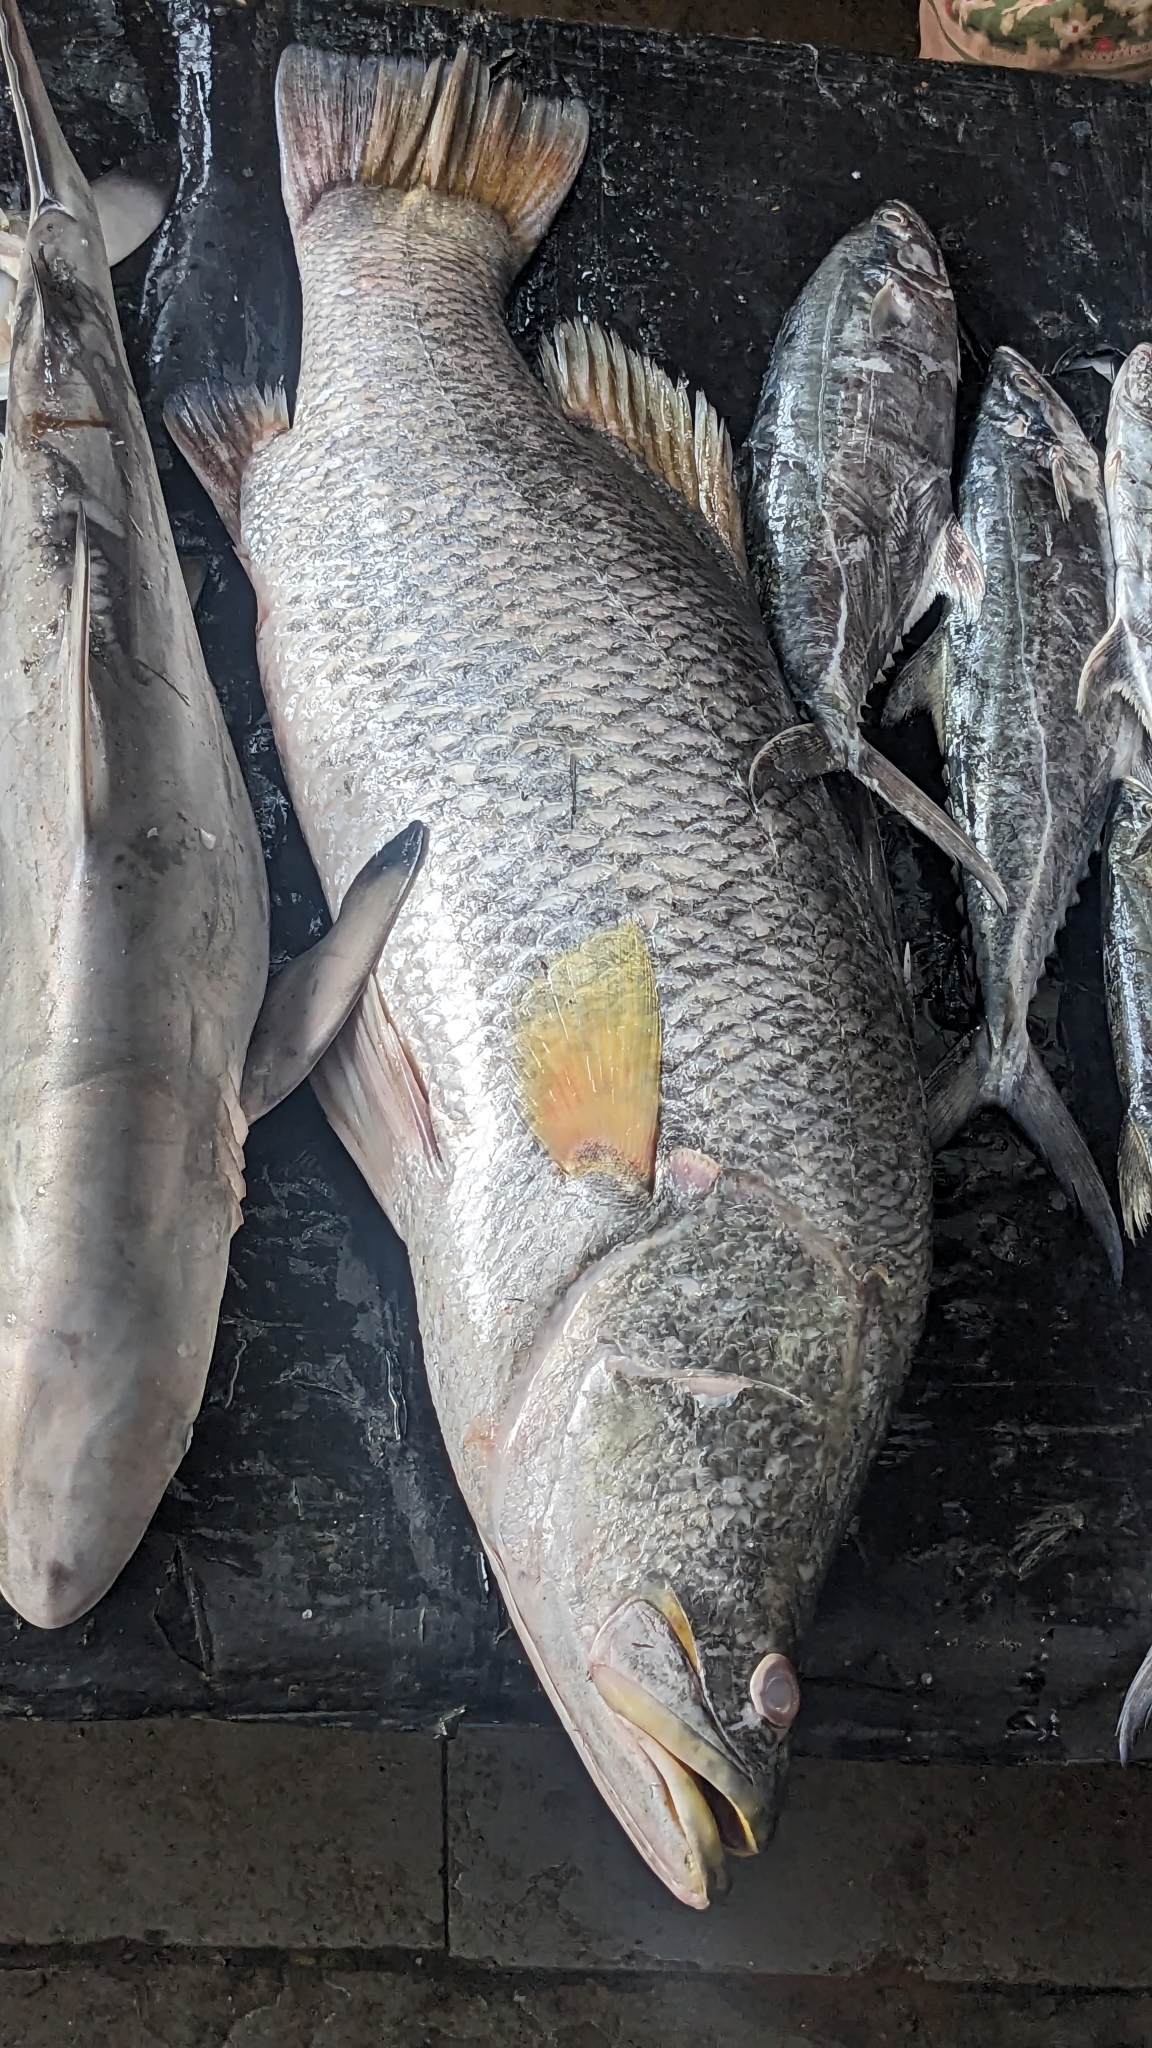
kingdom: Animalia
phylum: Chordata
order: Perciformes
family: Latidae
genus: Lates
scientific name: Lates calcarifer
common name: Barramundi
